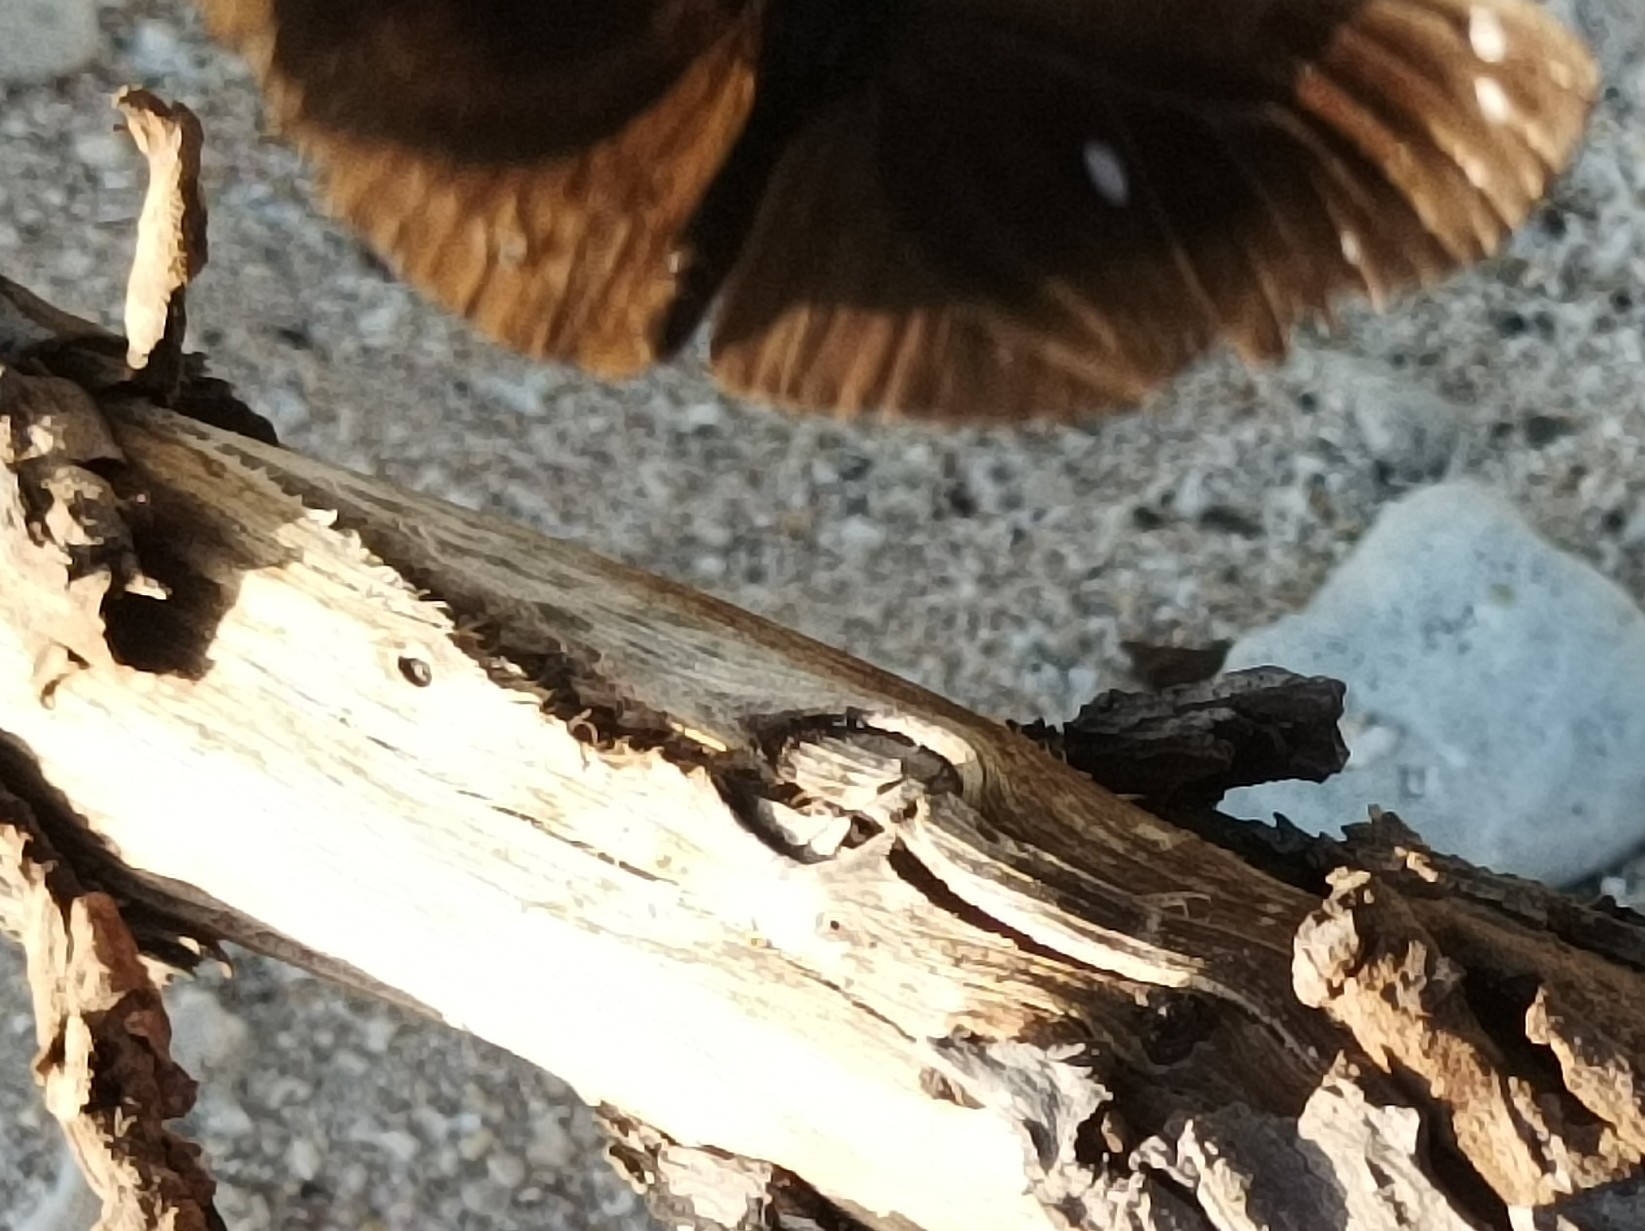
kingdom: Animalia
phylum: Arthropoda
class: Insecta
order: Lepidoptera
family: Nymphalidae
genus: Euploea
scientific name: Euploea leucostictos
